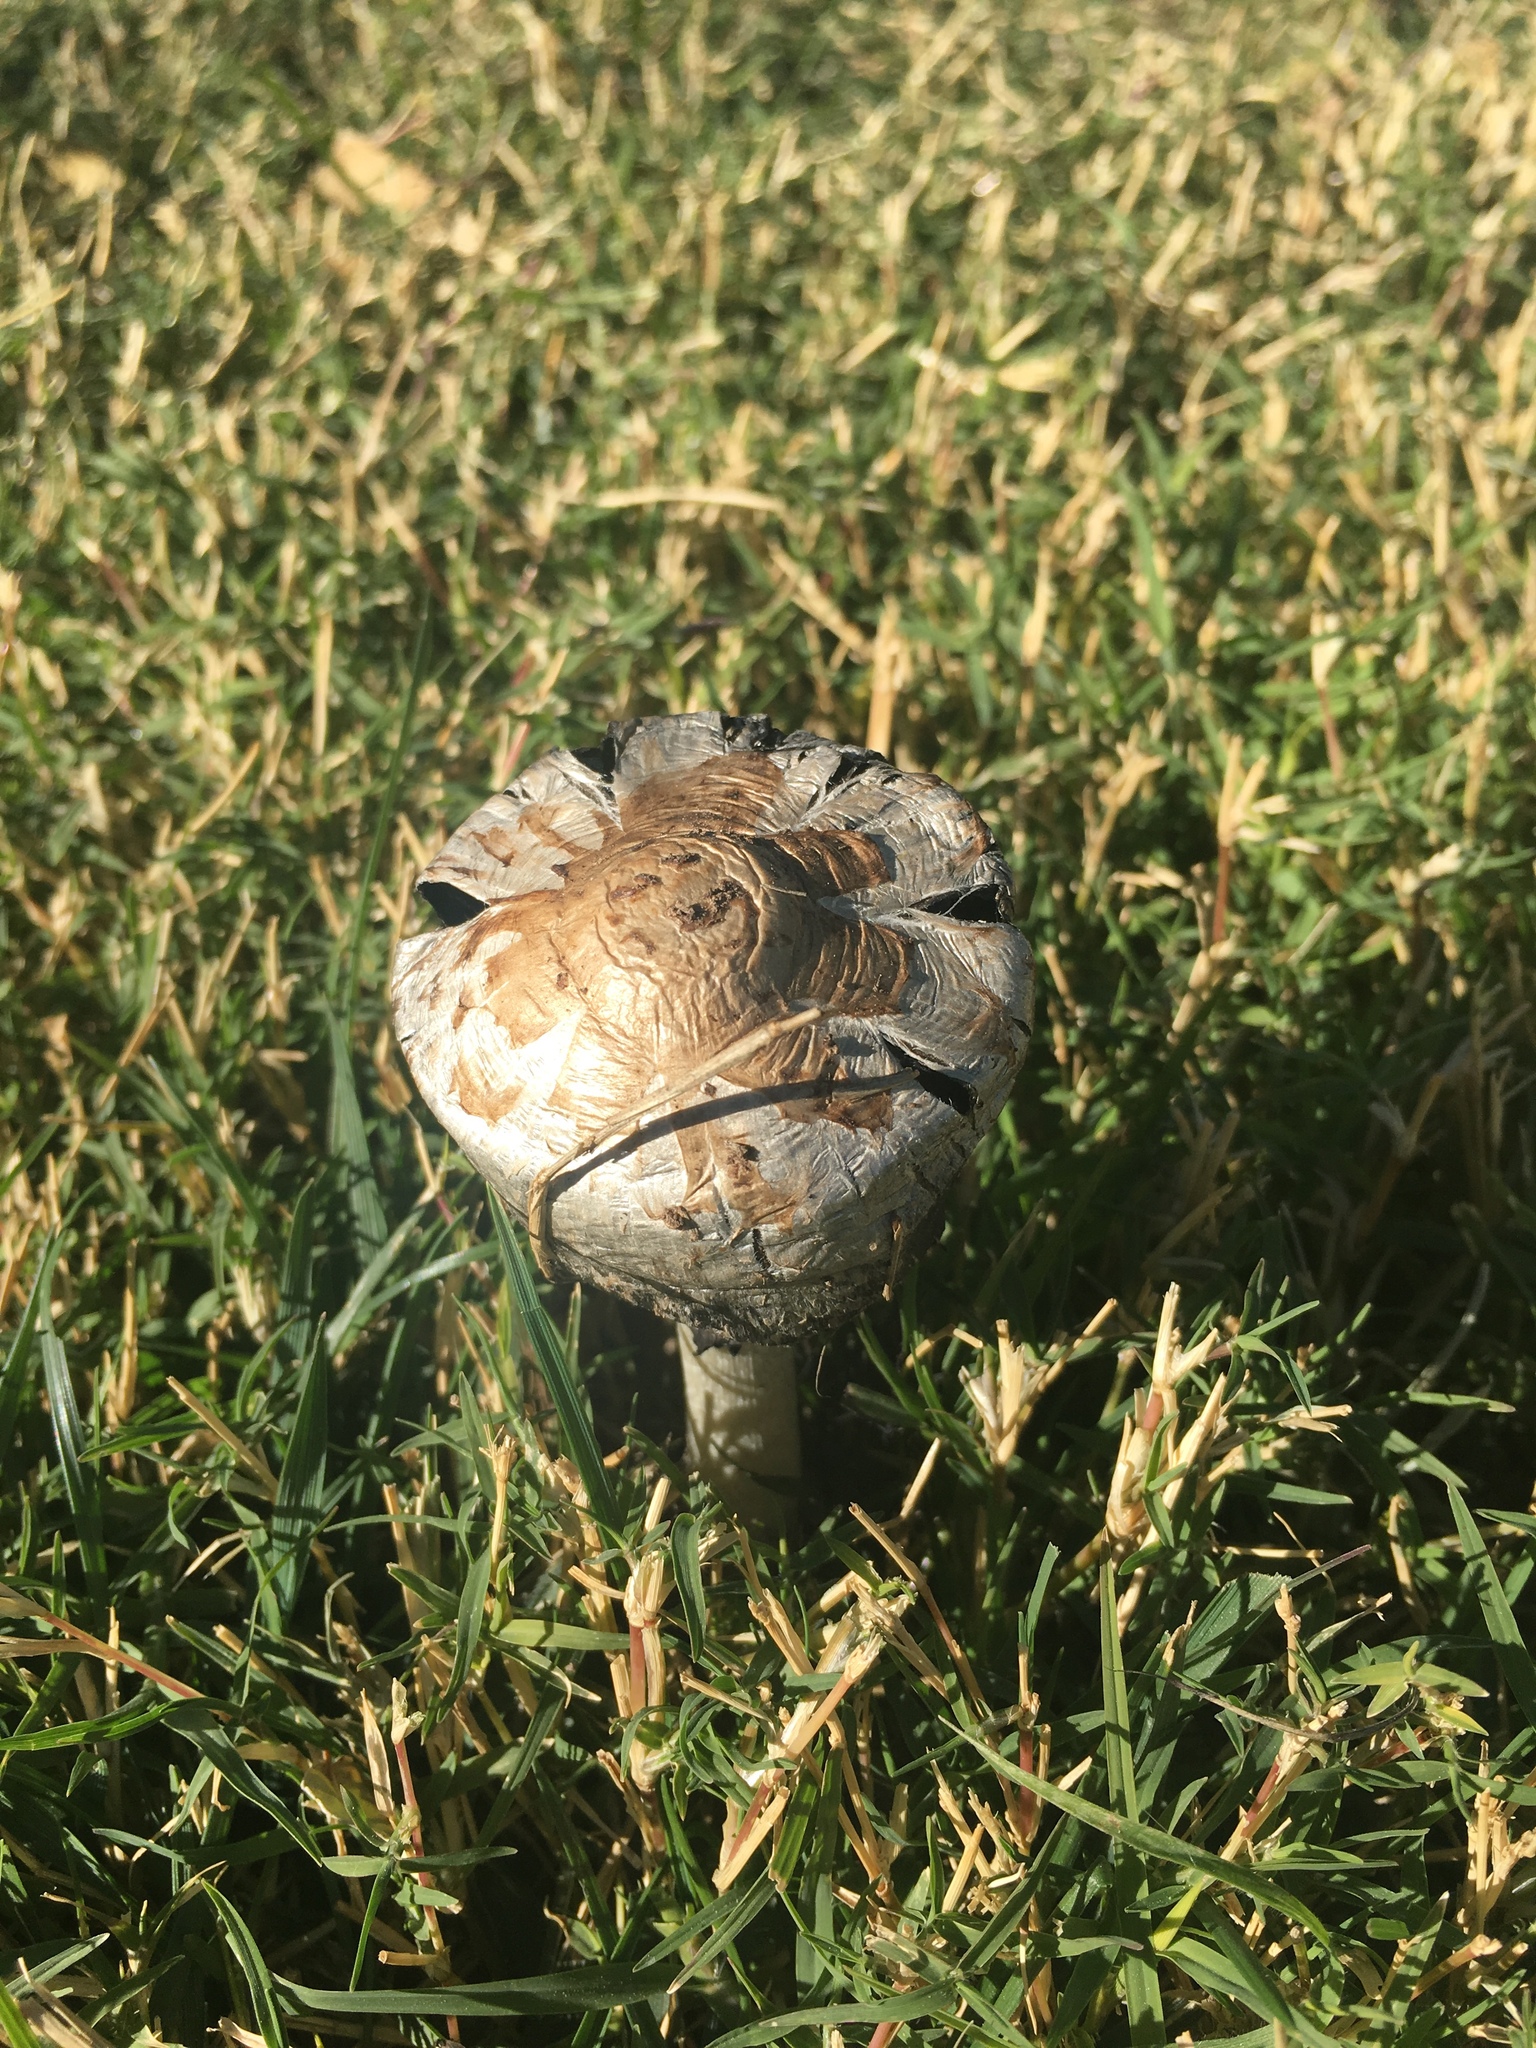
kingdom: Fungi
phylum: Basidiomycota
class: Agaricomycetes
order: Agaricales
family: Agaricaceae
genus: Coprinus
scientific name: Coprinus comatus
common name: Lawyer's wig
